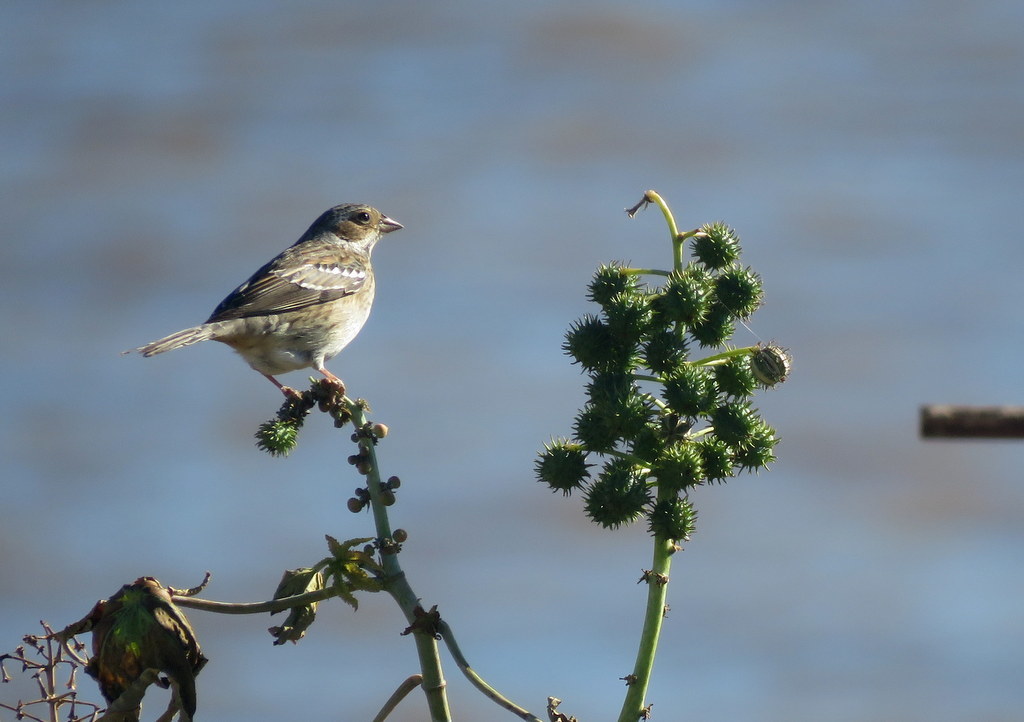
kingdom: Animalia
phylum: Chordata
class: Aves
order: Passeriformes
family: Thraupidae
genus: Rhopospina
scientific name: Rhopospina fruticeti
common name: Mourning sierra finch
